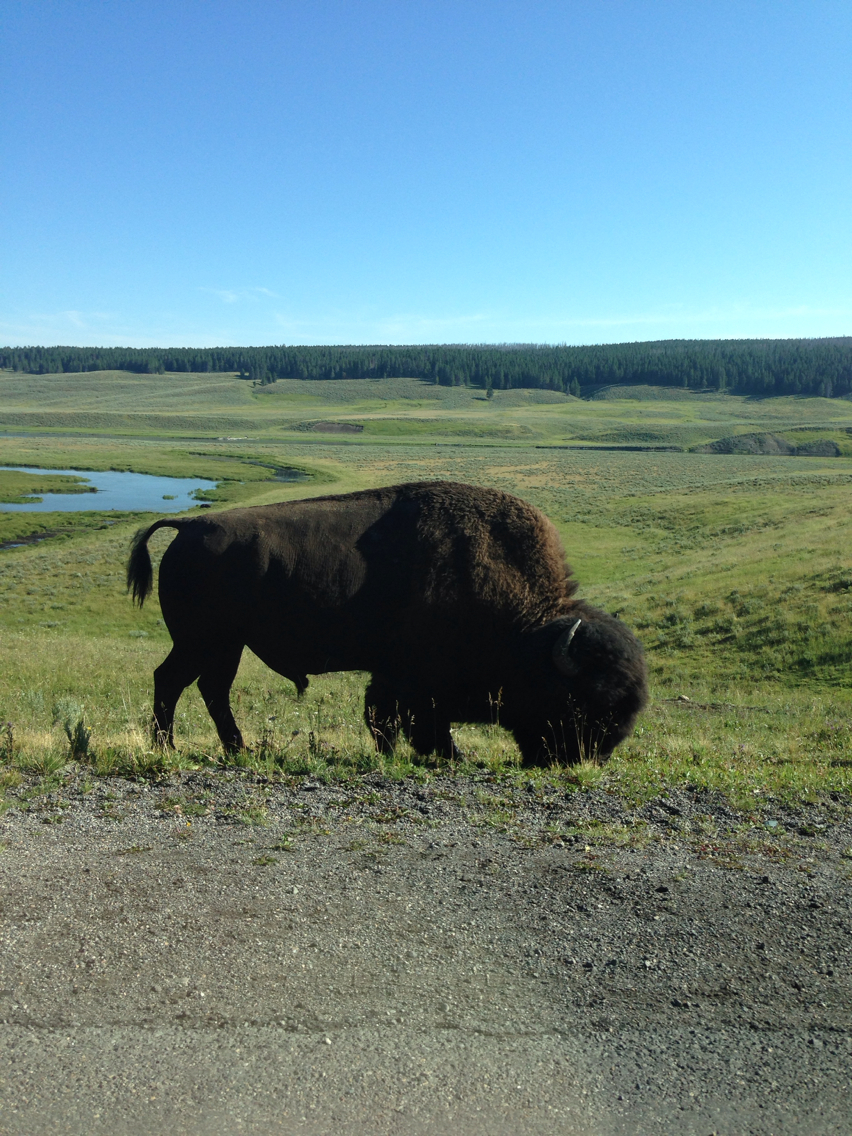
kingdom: Animalia
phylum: Chordata
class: Mammalia
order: Artiodactyla
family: Bovidae
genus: Bison
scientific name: Bison bison
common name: American bison
